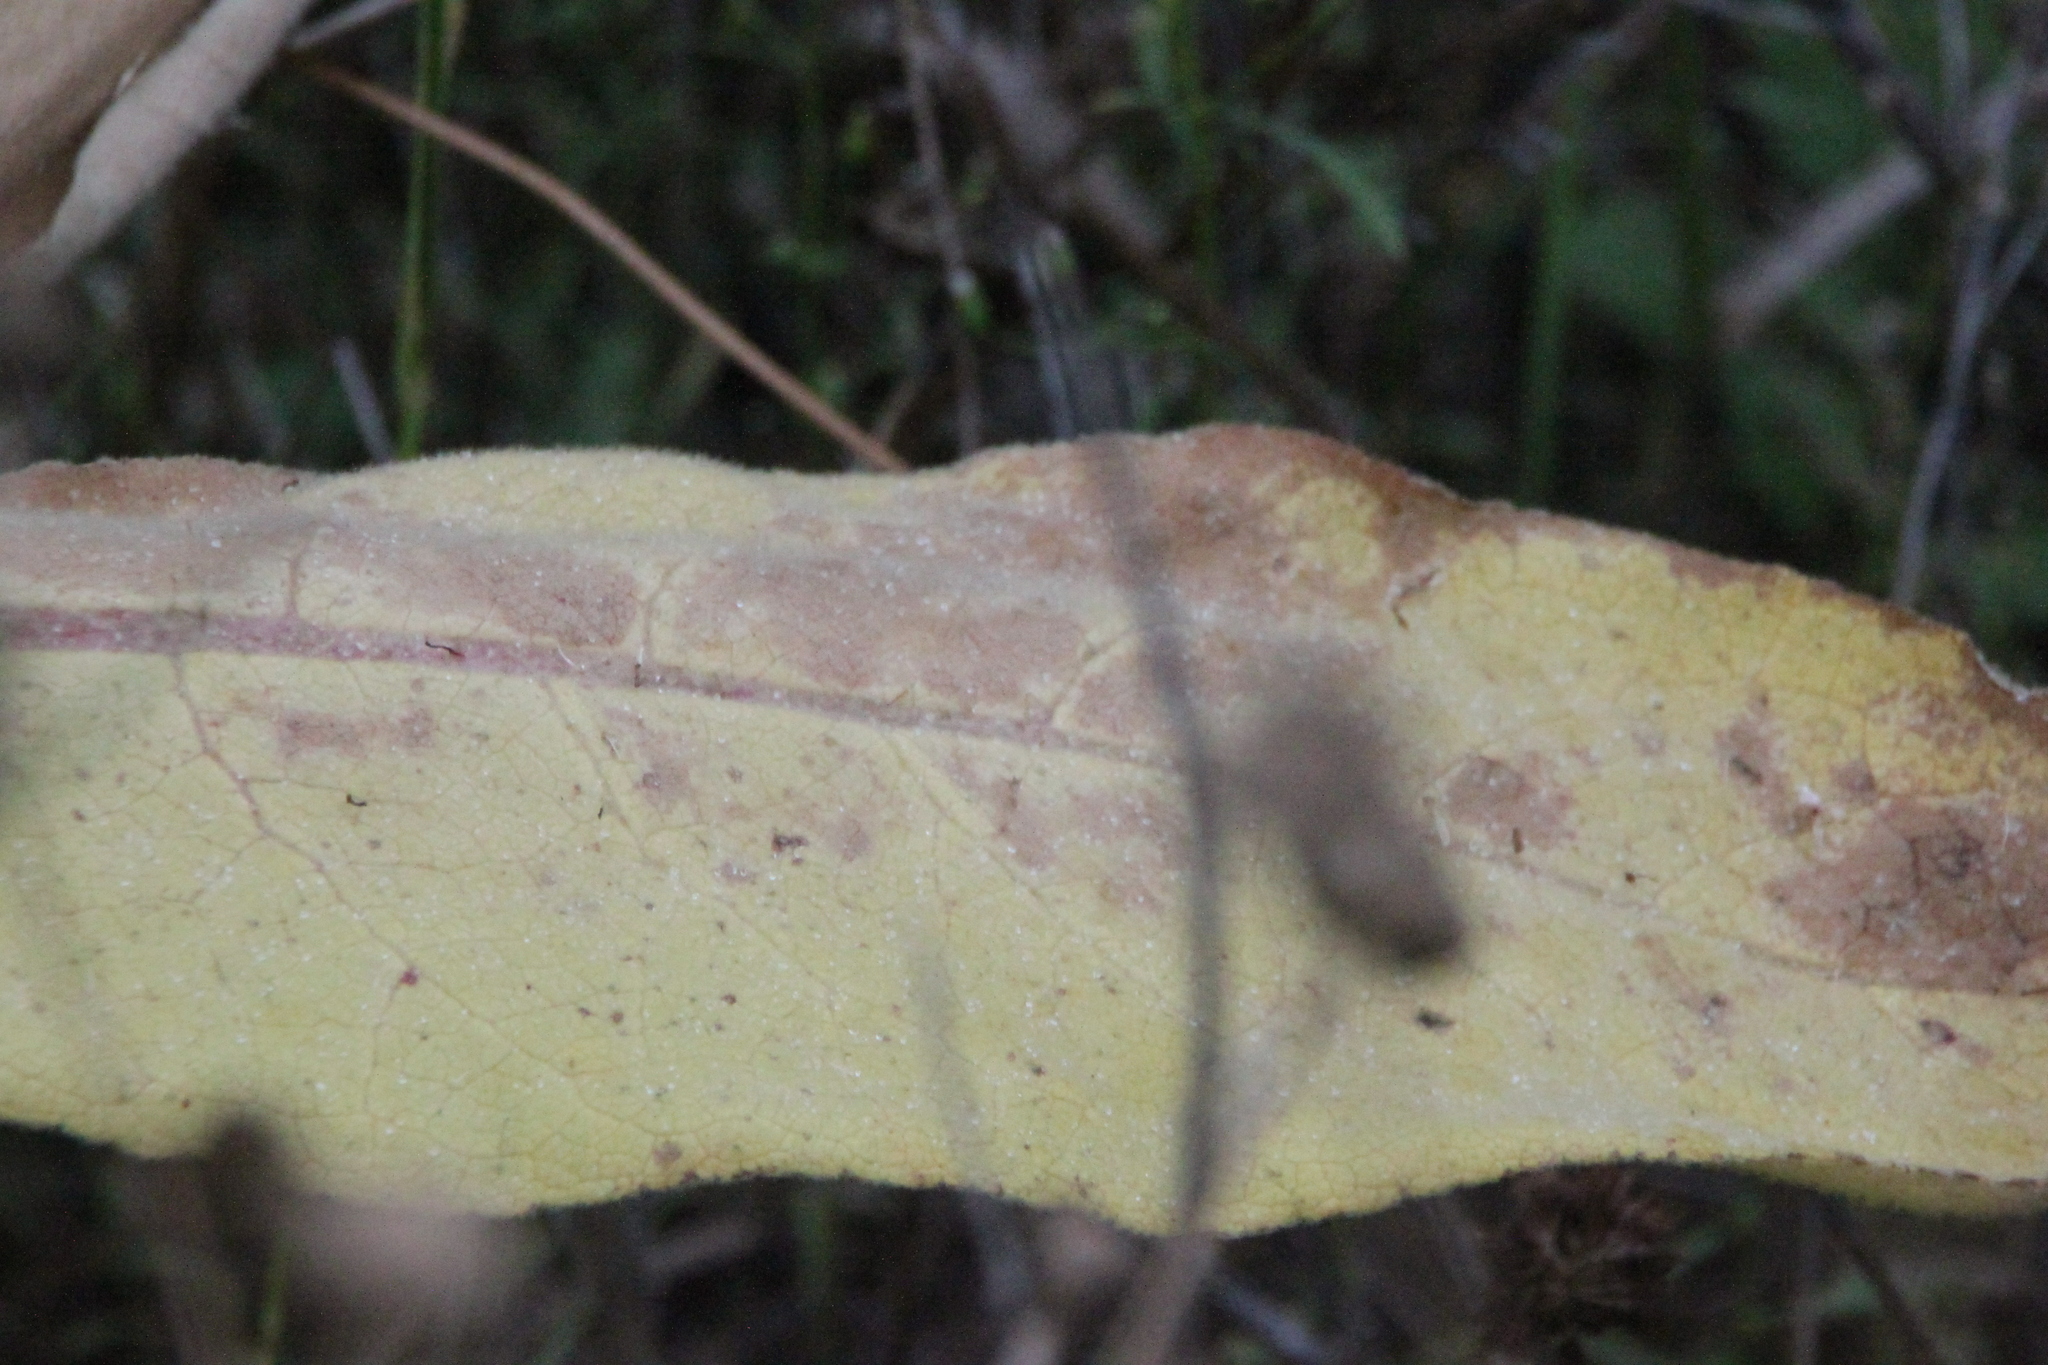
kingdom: Plantae
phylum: Tracheophyta
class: Magnoliopsida
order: Lamiales
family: Scrophulariaceae
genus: Verbascum
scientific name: Verbascum thapsus
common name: Common mullein
